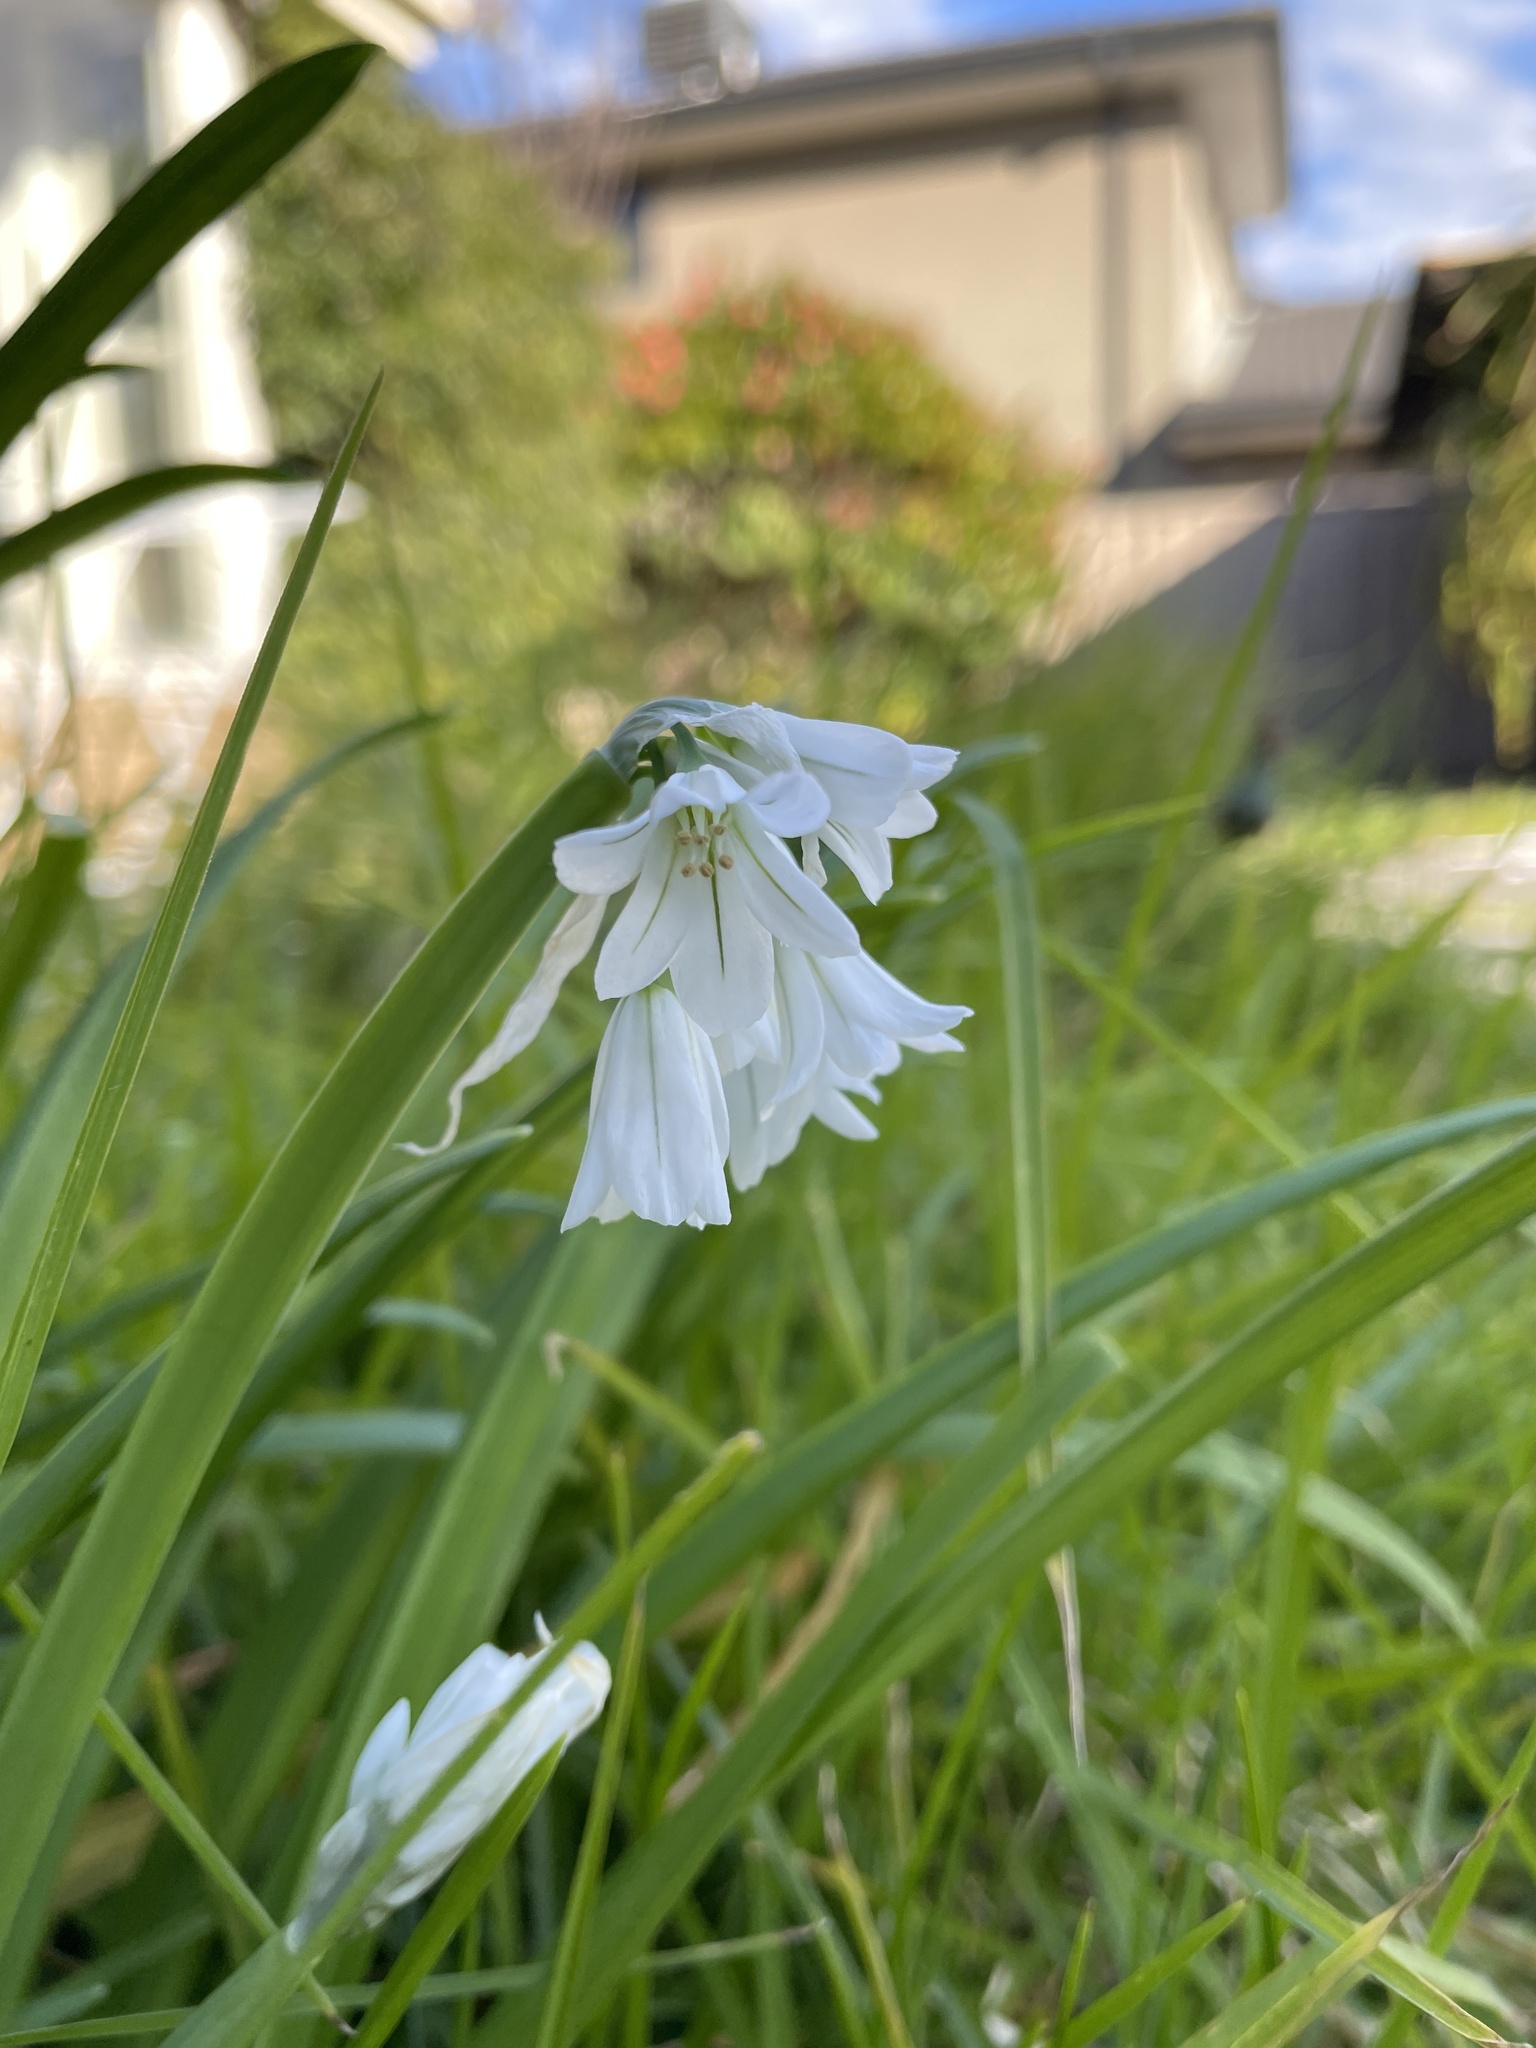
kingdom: Plantae
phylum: Tracheophyta
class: Liliopsida
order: Asparagales
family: Amaryllidaceae
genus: Allium
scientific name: Allium triquetrum
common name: Three-cornered garlic
